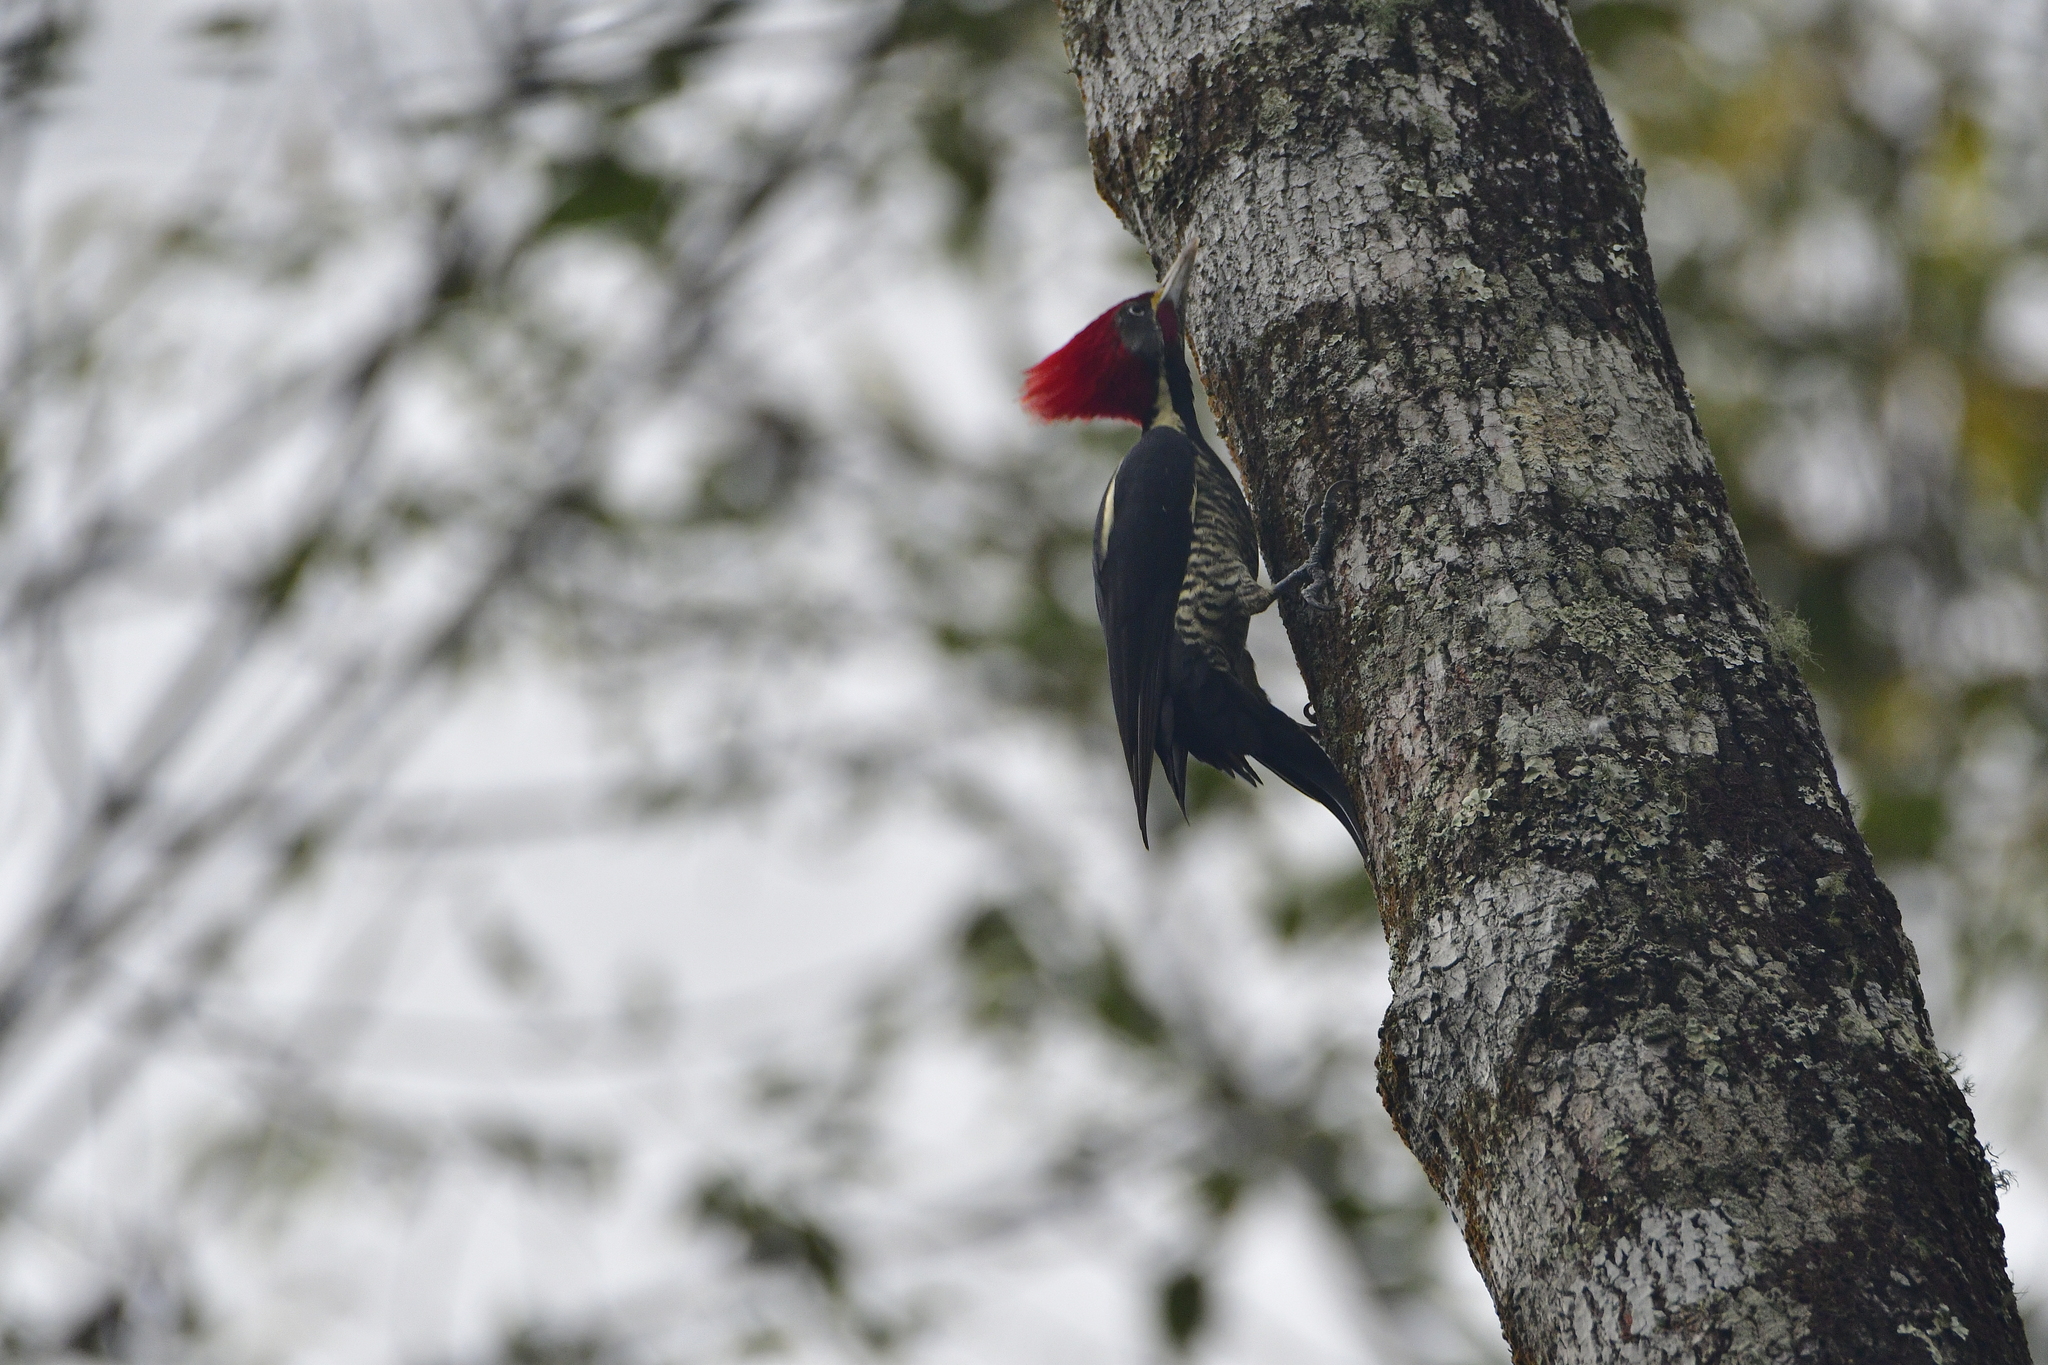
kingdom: Animalia
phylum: Chordata
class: Aves
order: Piciformes
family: Picidae
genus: Dryocopus
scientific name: Dryocopus lineatus
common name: Lineated woodpecker
